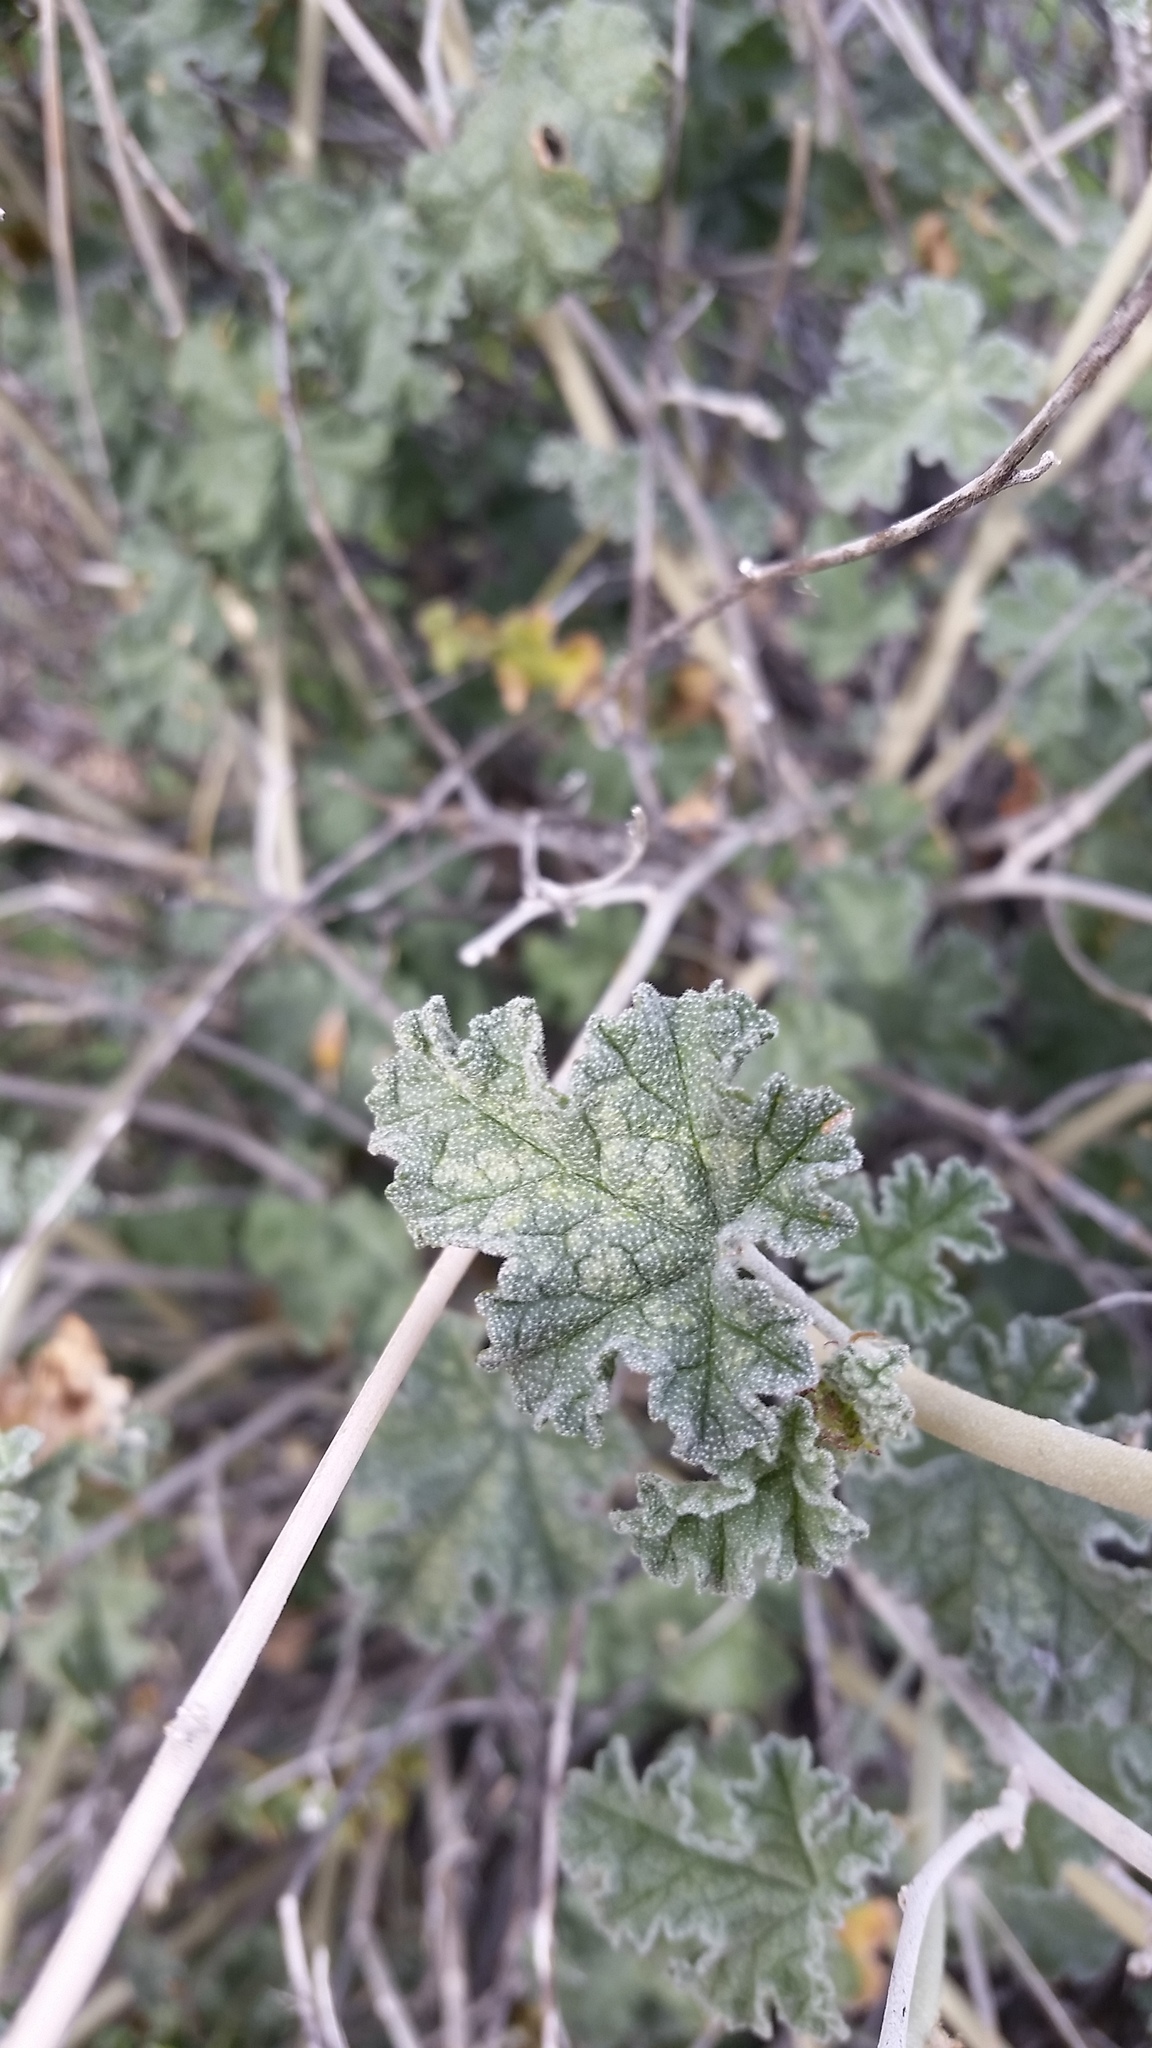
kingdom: Plantae
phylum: Tracheophyta
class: Magnoliopsida
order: Malvales
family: Malvaceae
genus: Sphaeralcea
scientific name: Sphaeralcea ambigua
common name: Apricot globe-mallow
